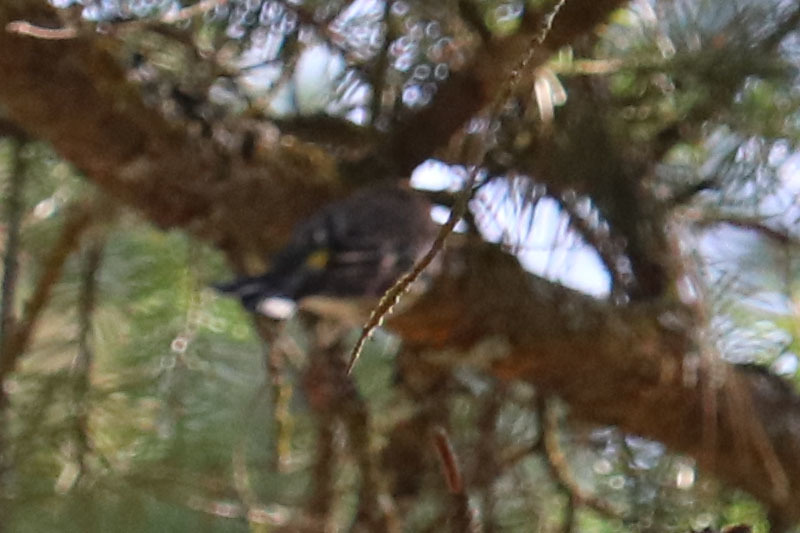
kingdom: Animalia
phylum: Chordata
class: Aves
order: Passeriformes
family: Parulidae
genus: Setophaga
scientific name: Setophaga coronata
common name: Myrtle warbler
